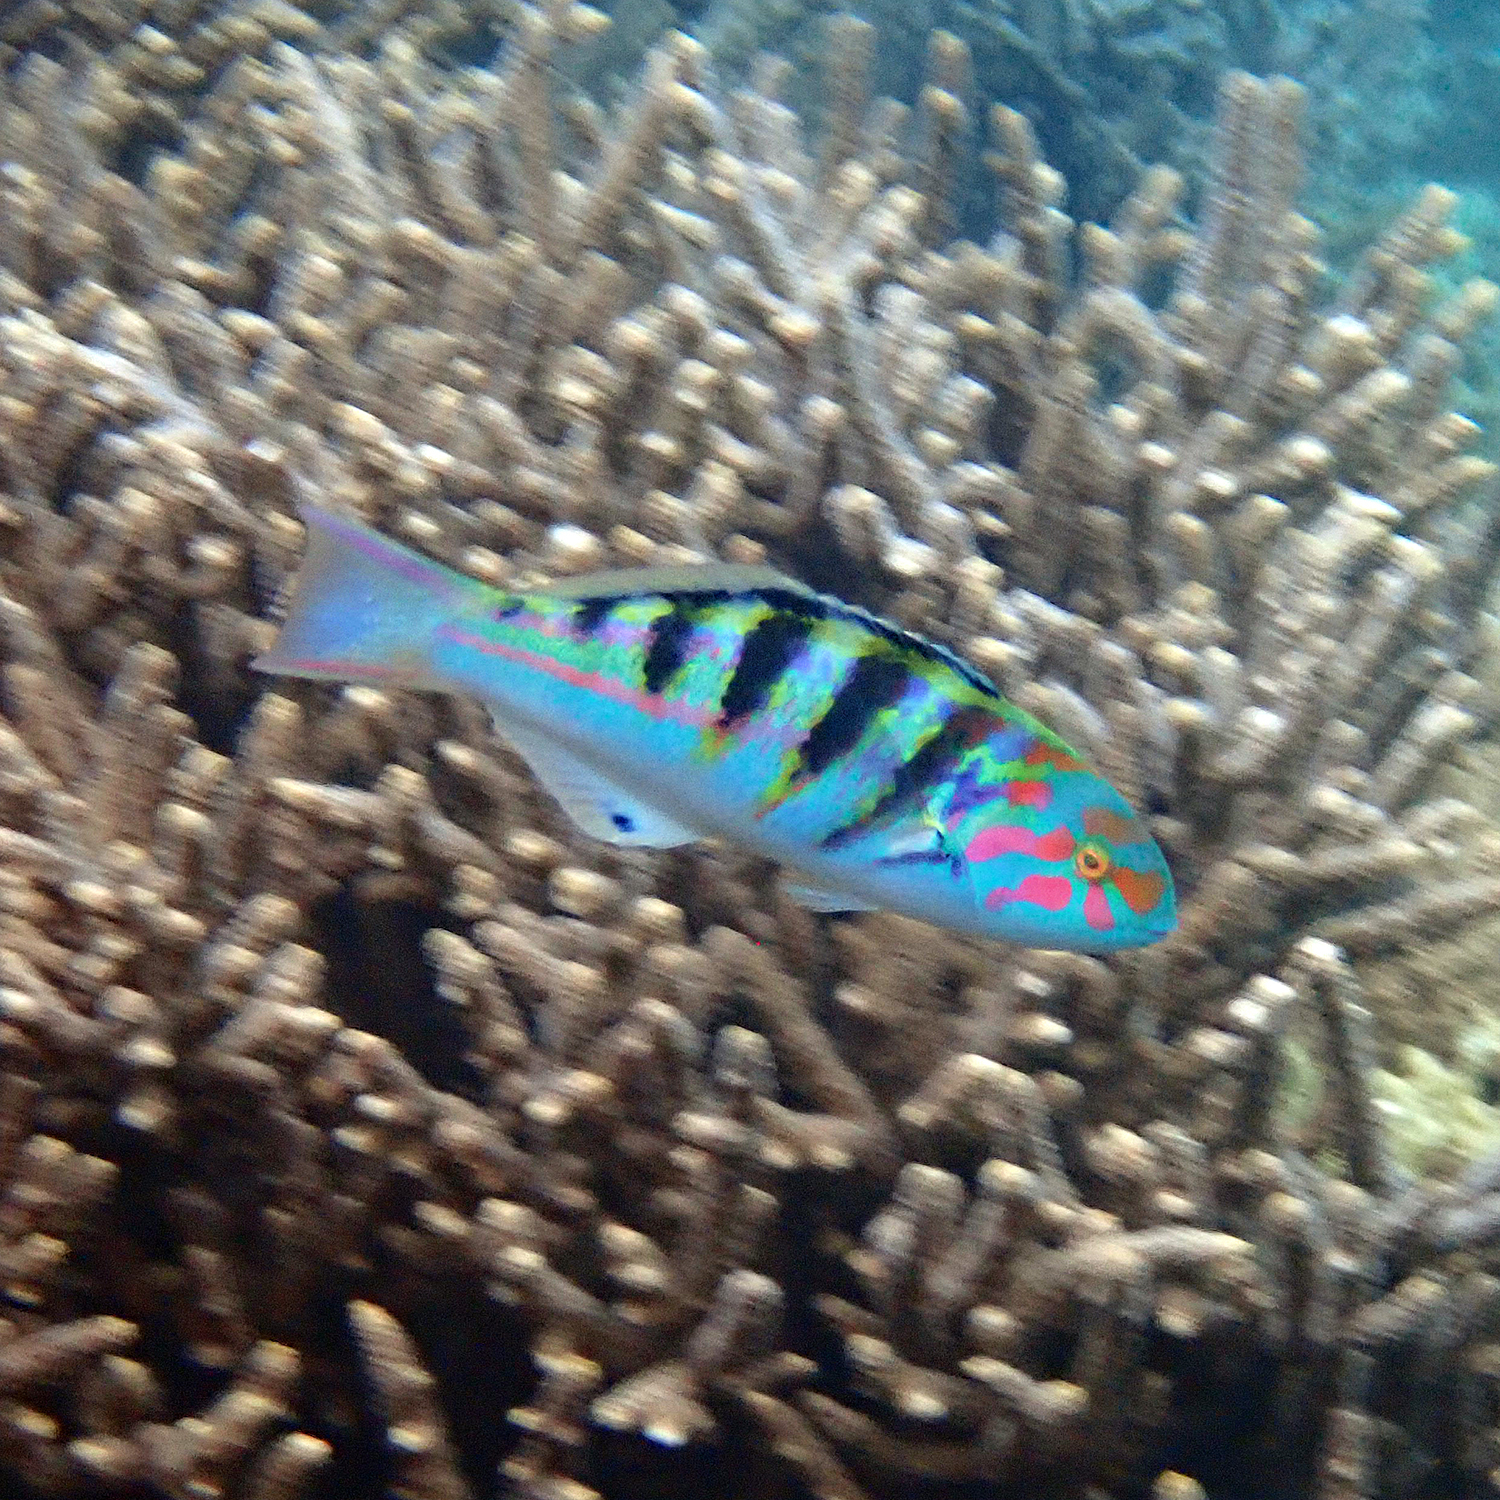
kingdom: Animalia
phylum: Chordata
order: Perciformes
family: Labridae
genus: Thalassoma
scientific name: Thalassoma hardwicke
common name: Sixbar wrasse
